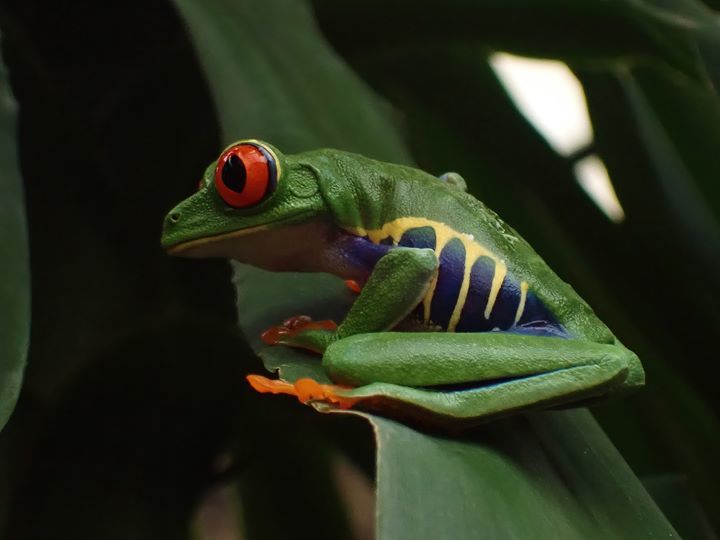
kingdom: Animalia
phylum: Chordata
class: Amphibia
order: Anura
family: Phyllomedusidae
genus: Agalychnis
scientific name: Agalychnis callidryas
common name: Red-eyed treefrog
